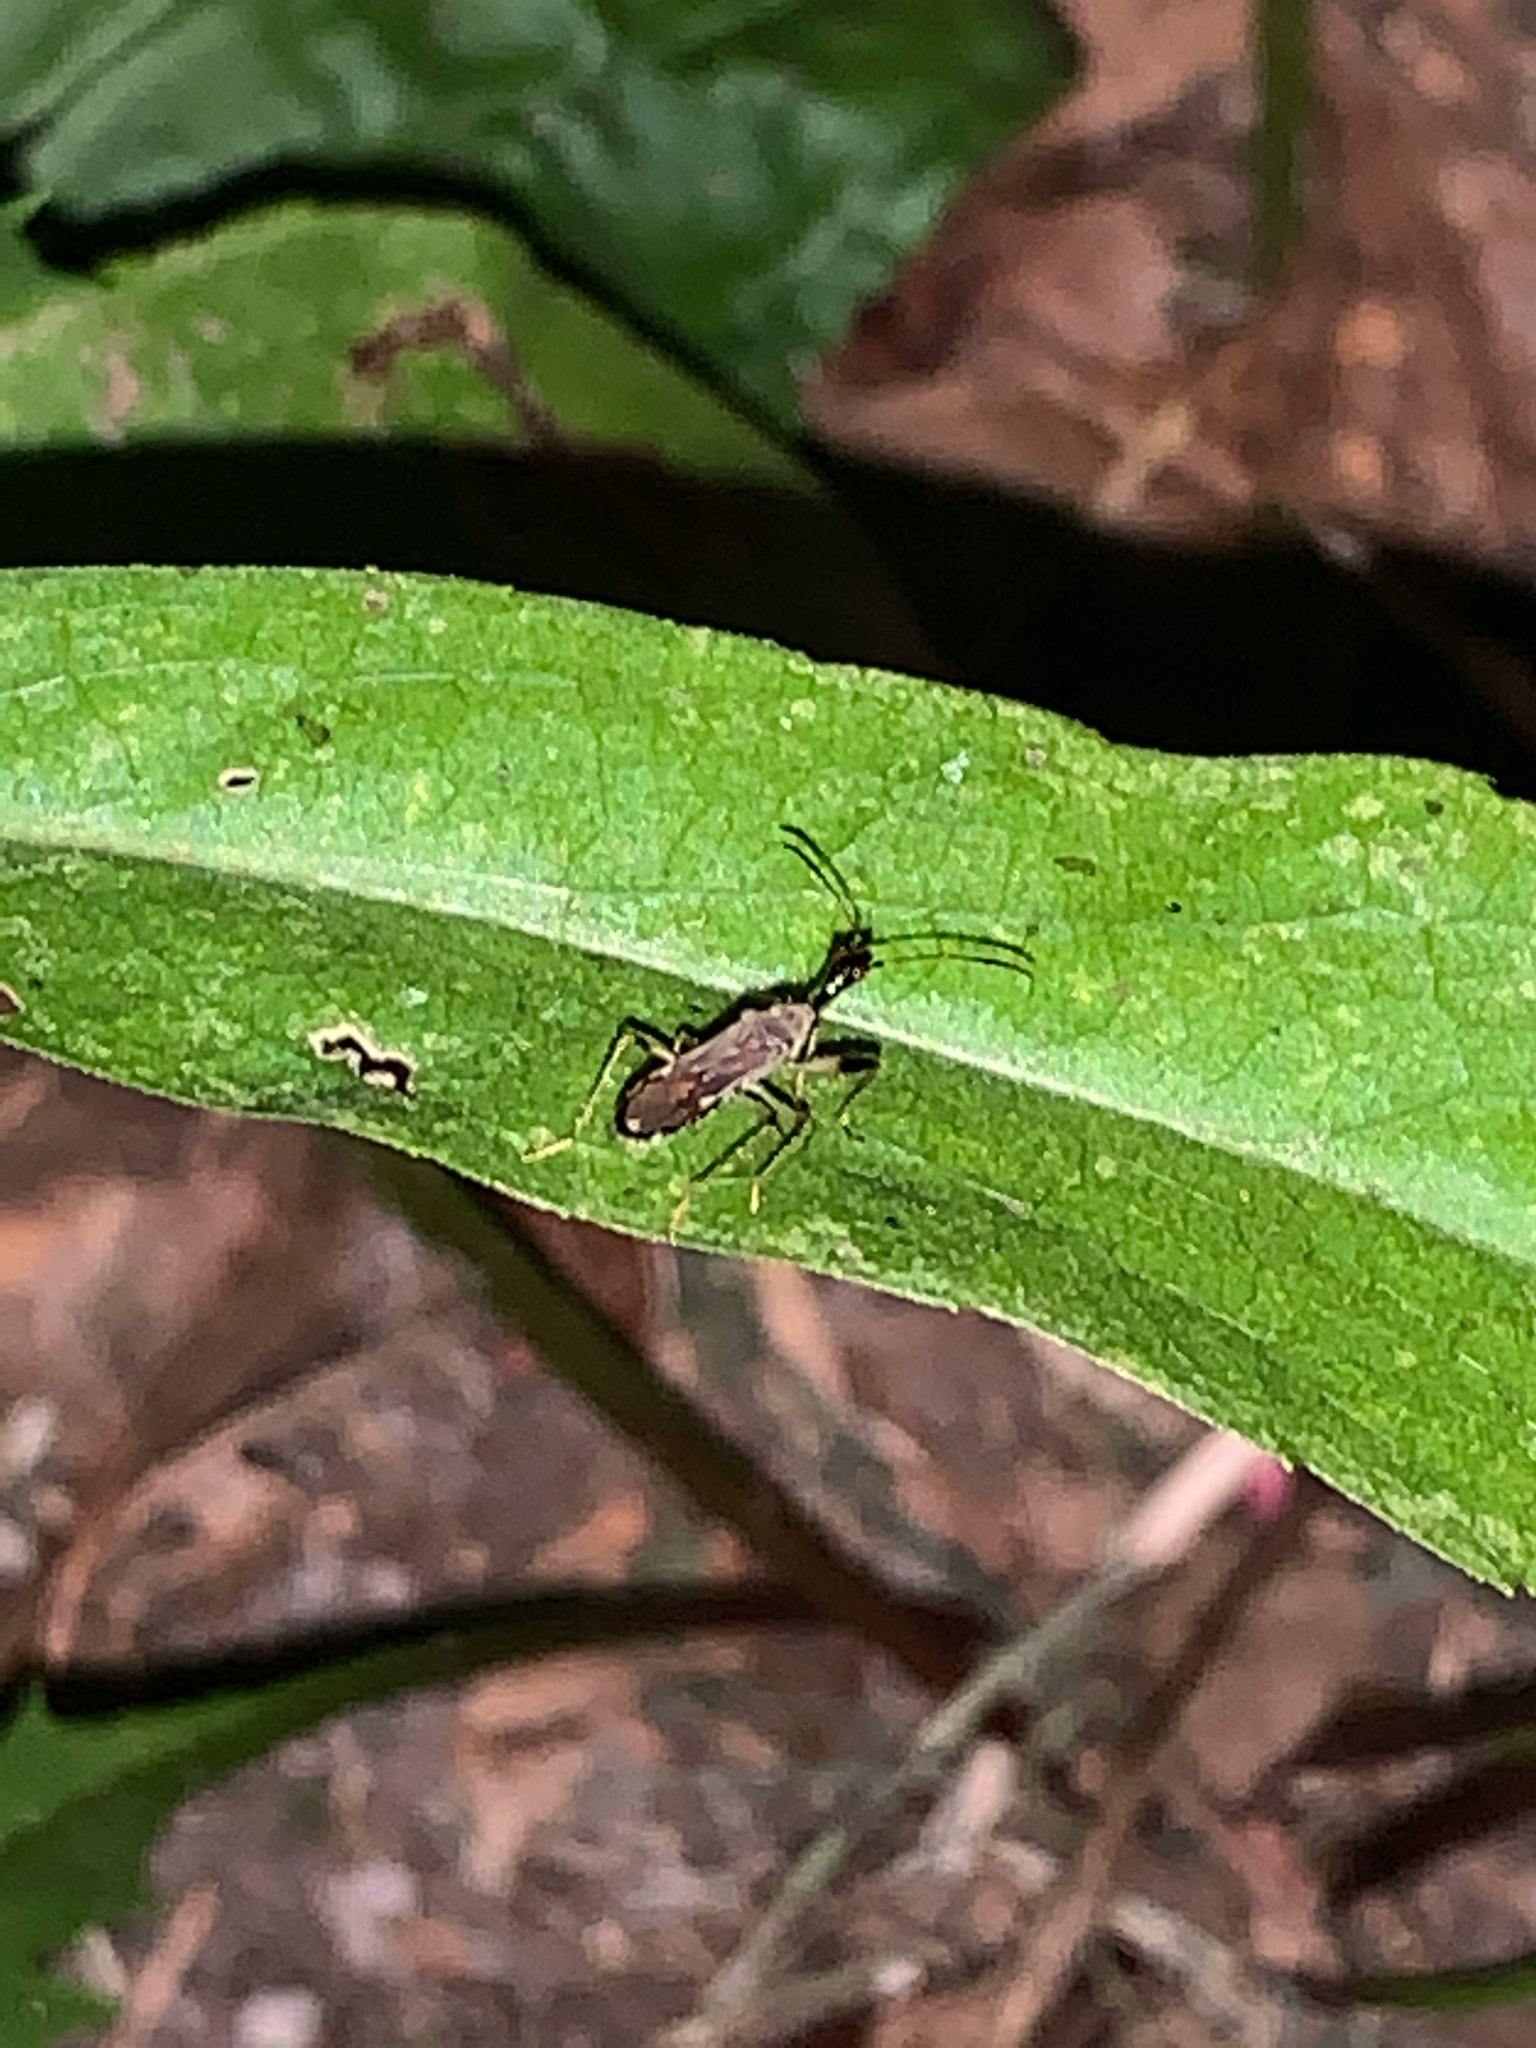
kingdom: Animalia
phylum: Arthropoda
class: Insecta
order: Hemiptera
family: Rhyparochromidae
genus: Myodocha
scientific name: Myodocha serripes
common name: Long-necked seed bug
